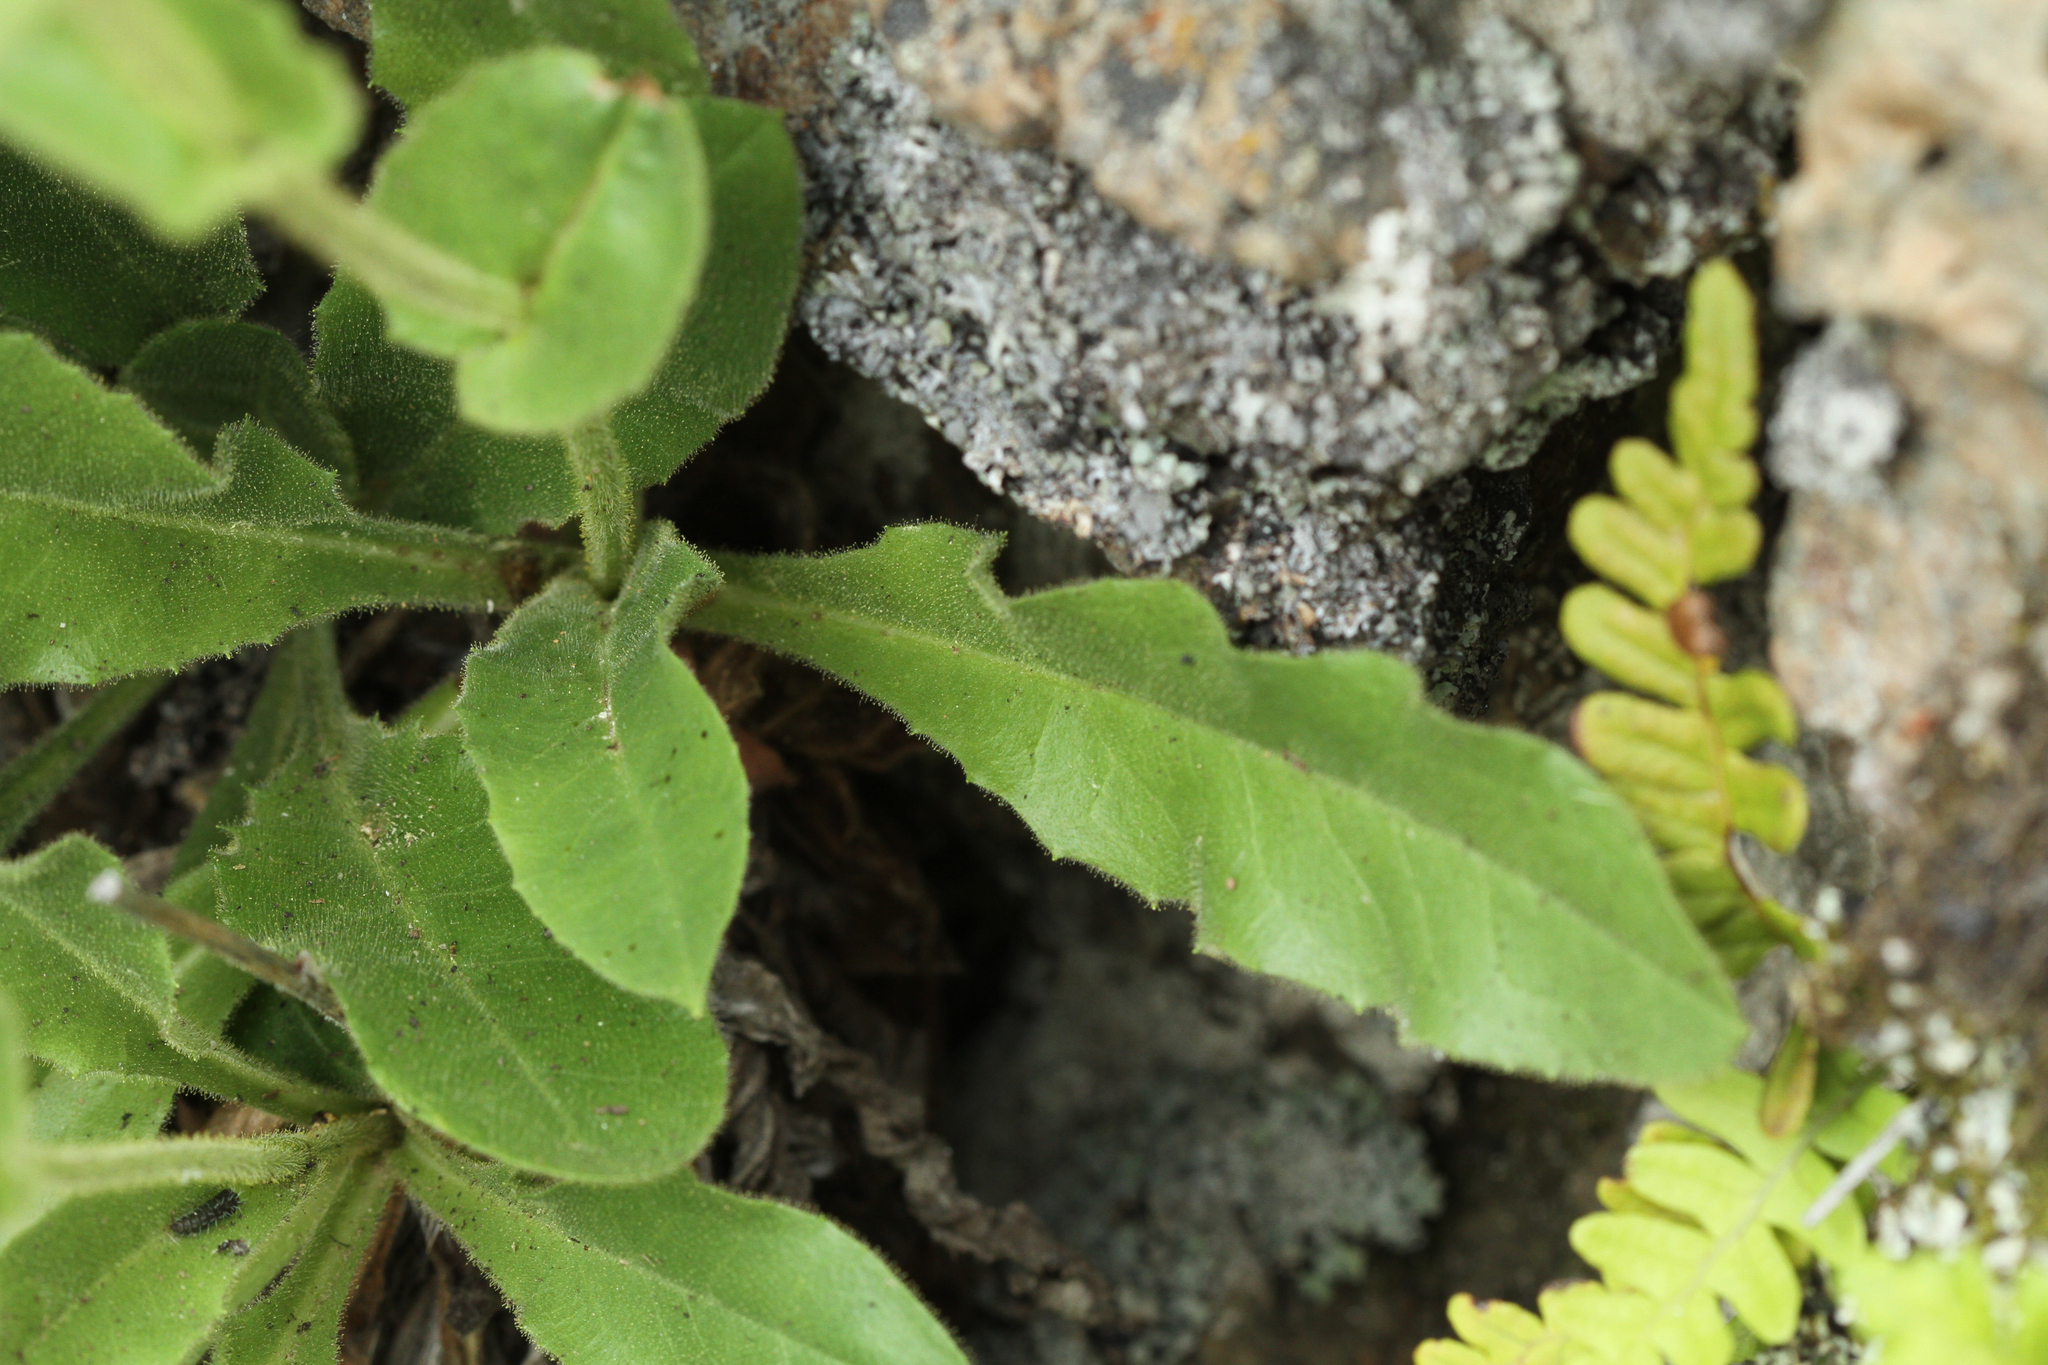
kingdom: Plantae
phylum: Tracheophyta
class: Magnoliopsida
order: Asterales
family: Asteraceae
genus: Hieracium
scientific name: Hieracium amplexicaule
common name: Sticky hawkweed
